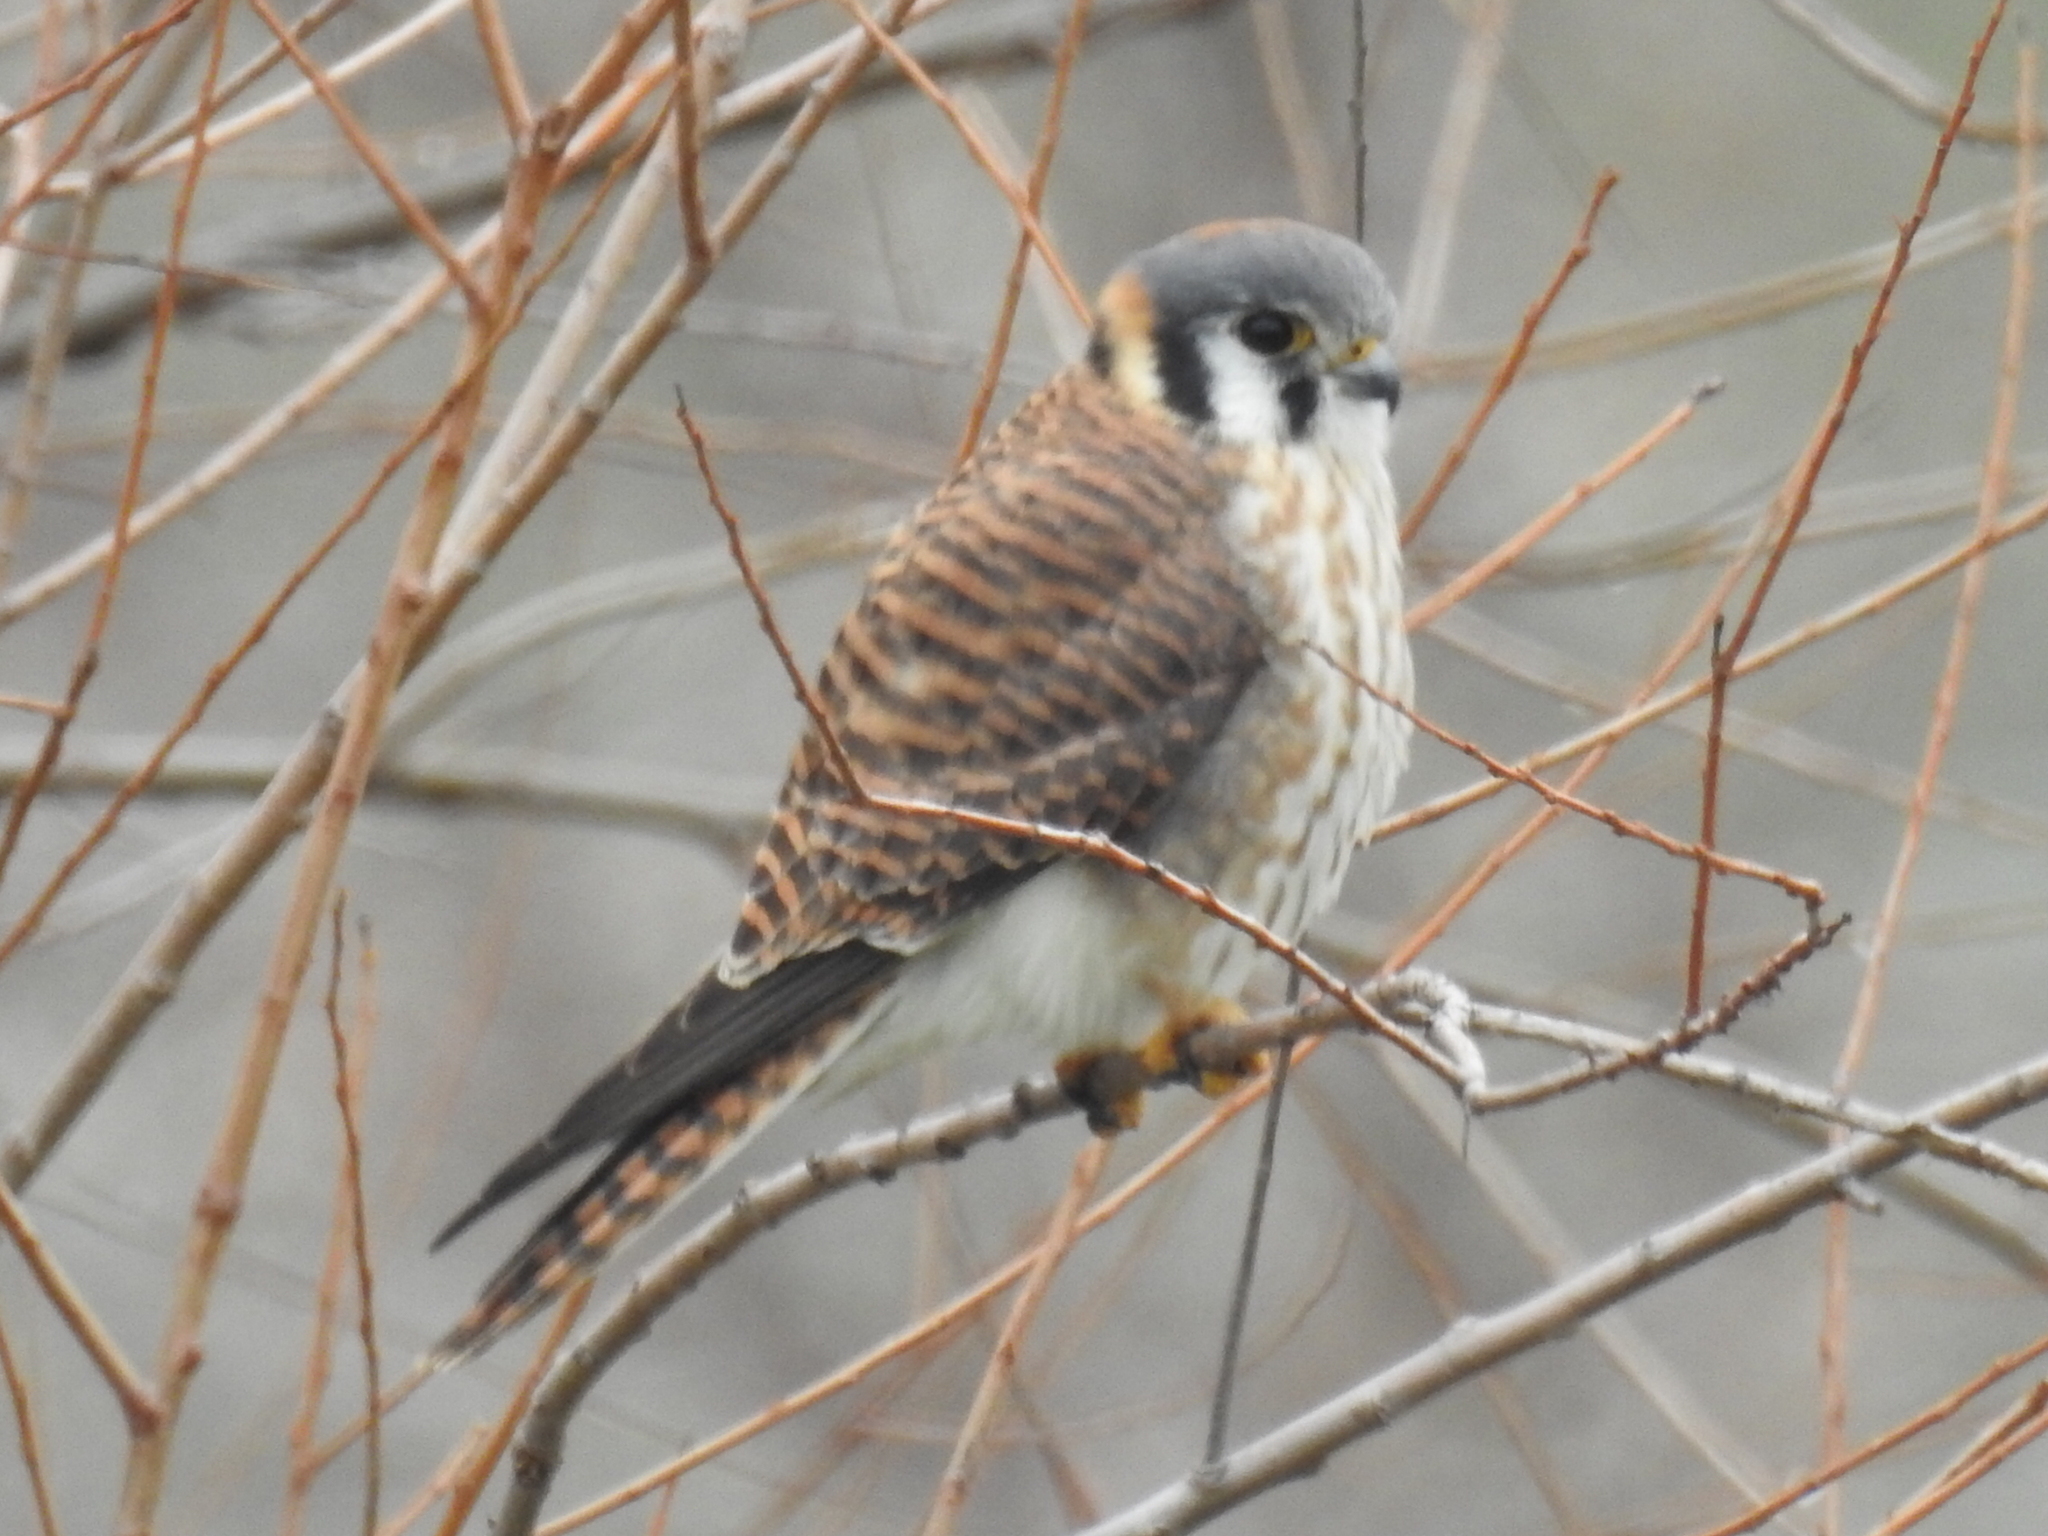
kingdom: Animalia
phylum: Chordata
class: Aves
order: Falconiformes
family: Falconidae
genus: Falco
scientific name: Falco sparverius
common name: American kestrel
